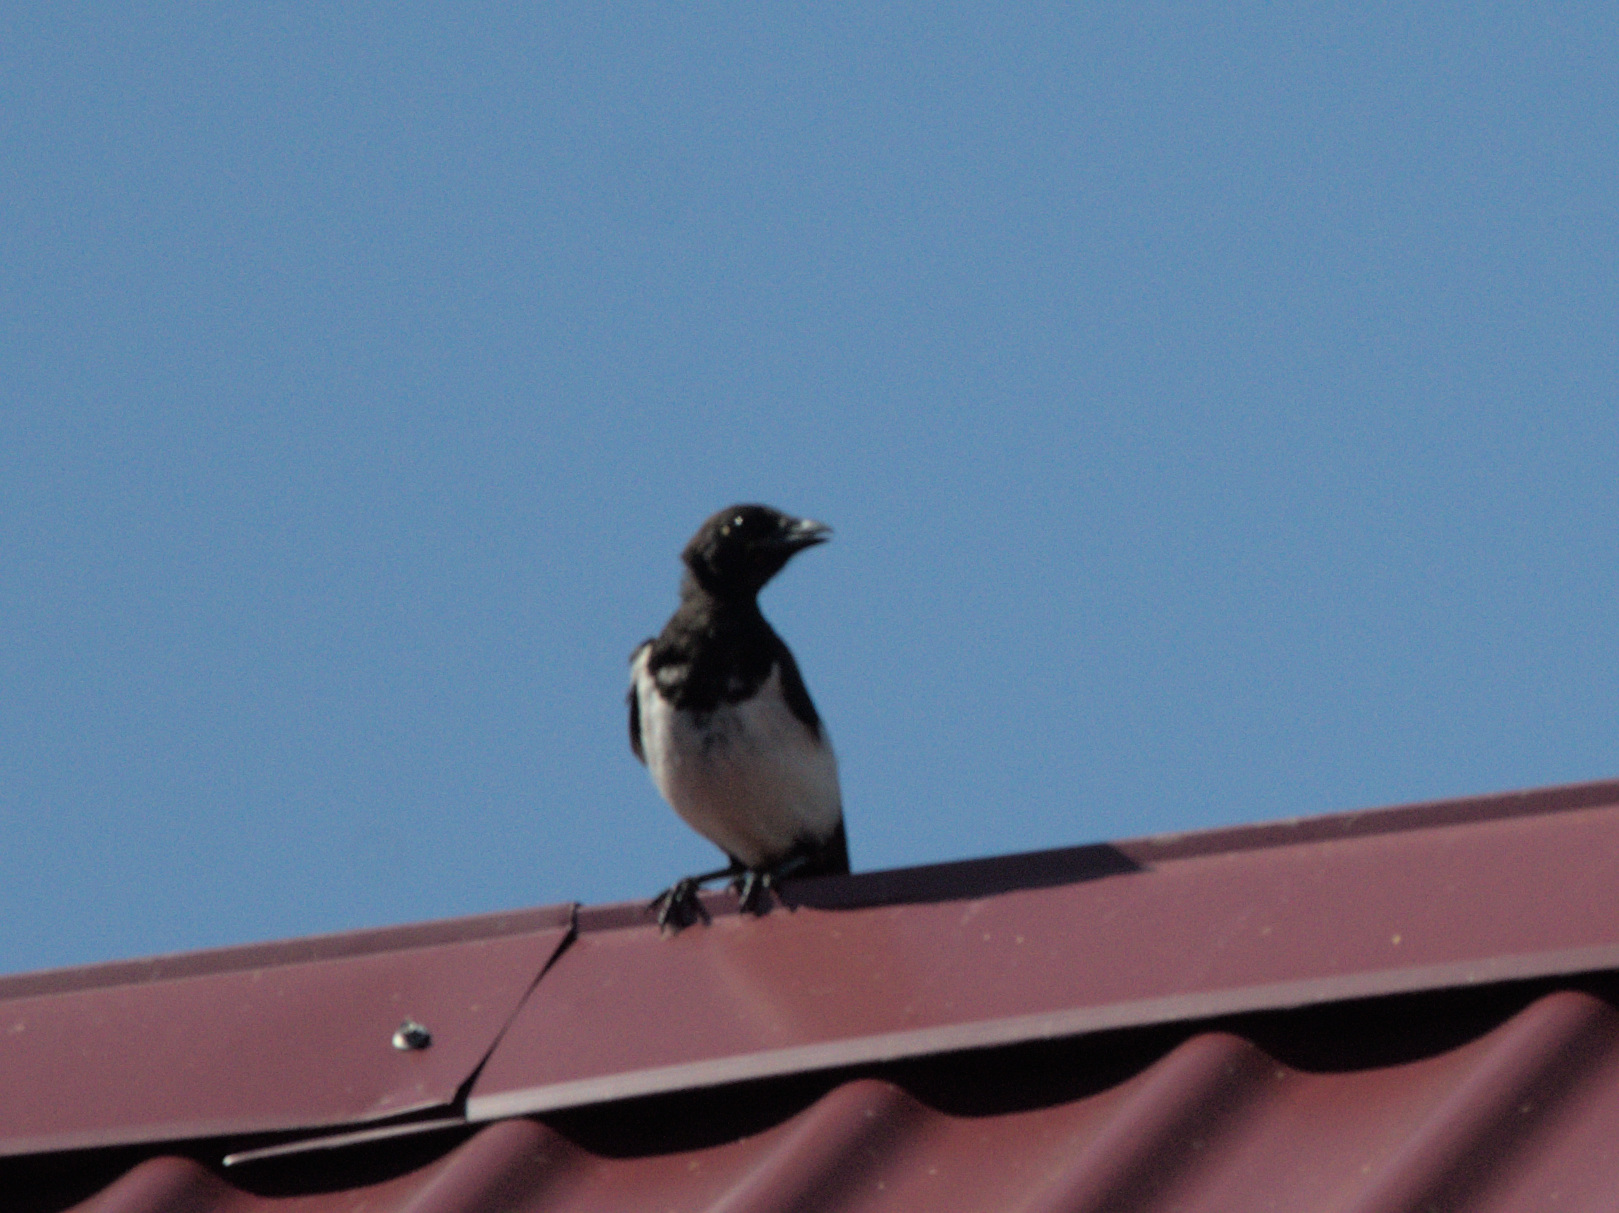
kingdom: Animalia
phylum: Chordata
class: Aves
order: Passeriformes
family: Corvidae
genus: Pica
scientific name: Pica pica
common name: Eurasian magpie
